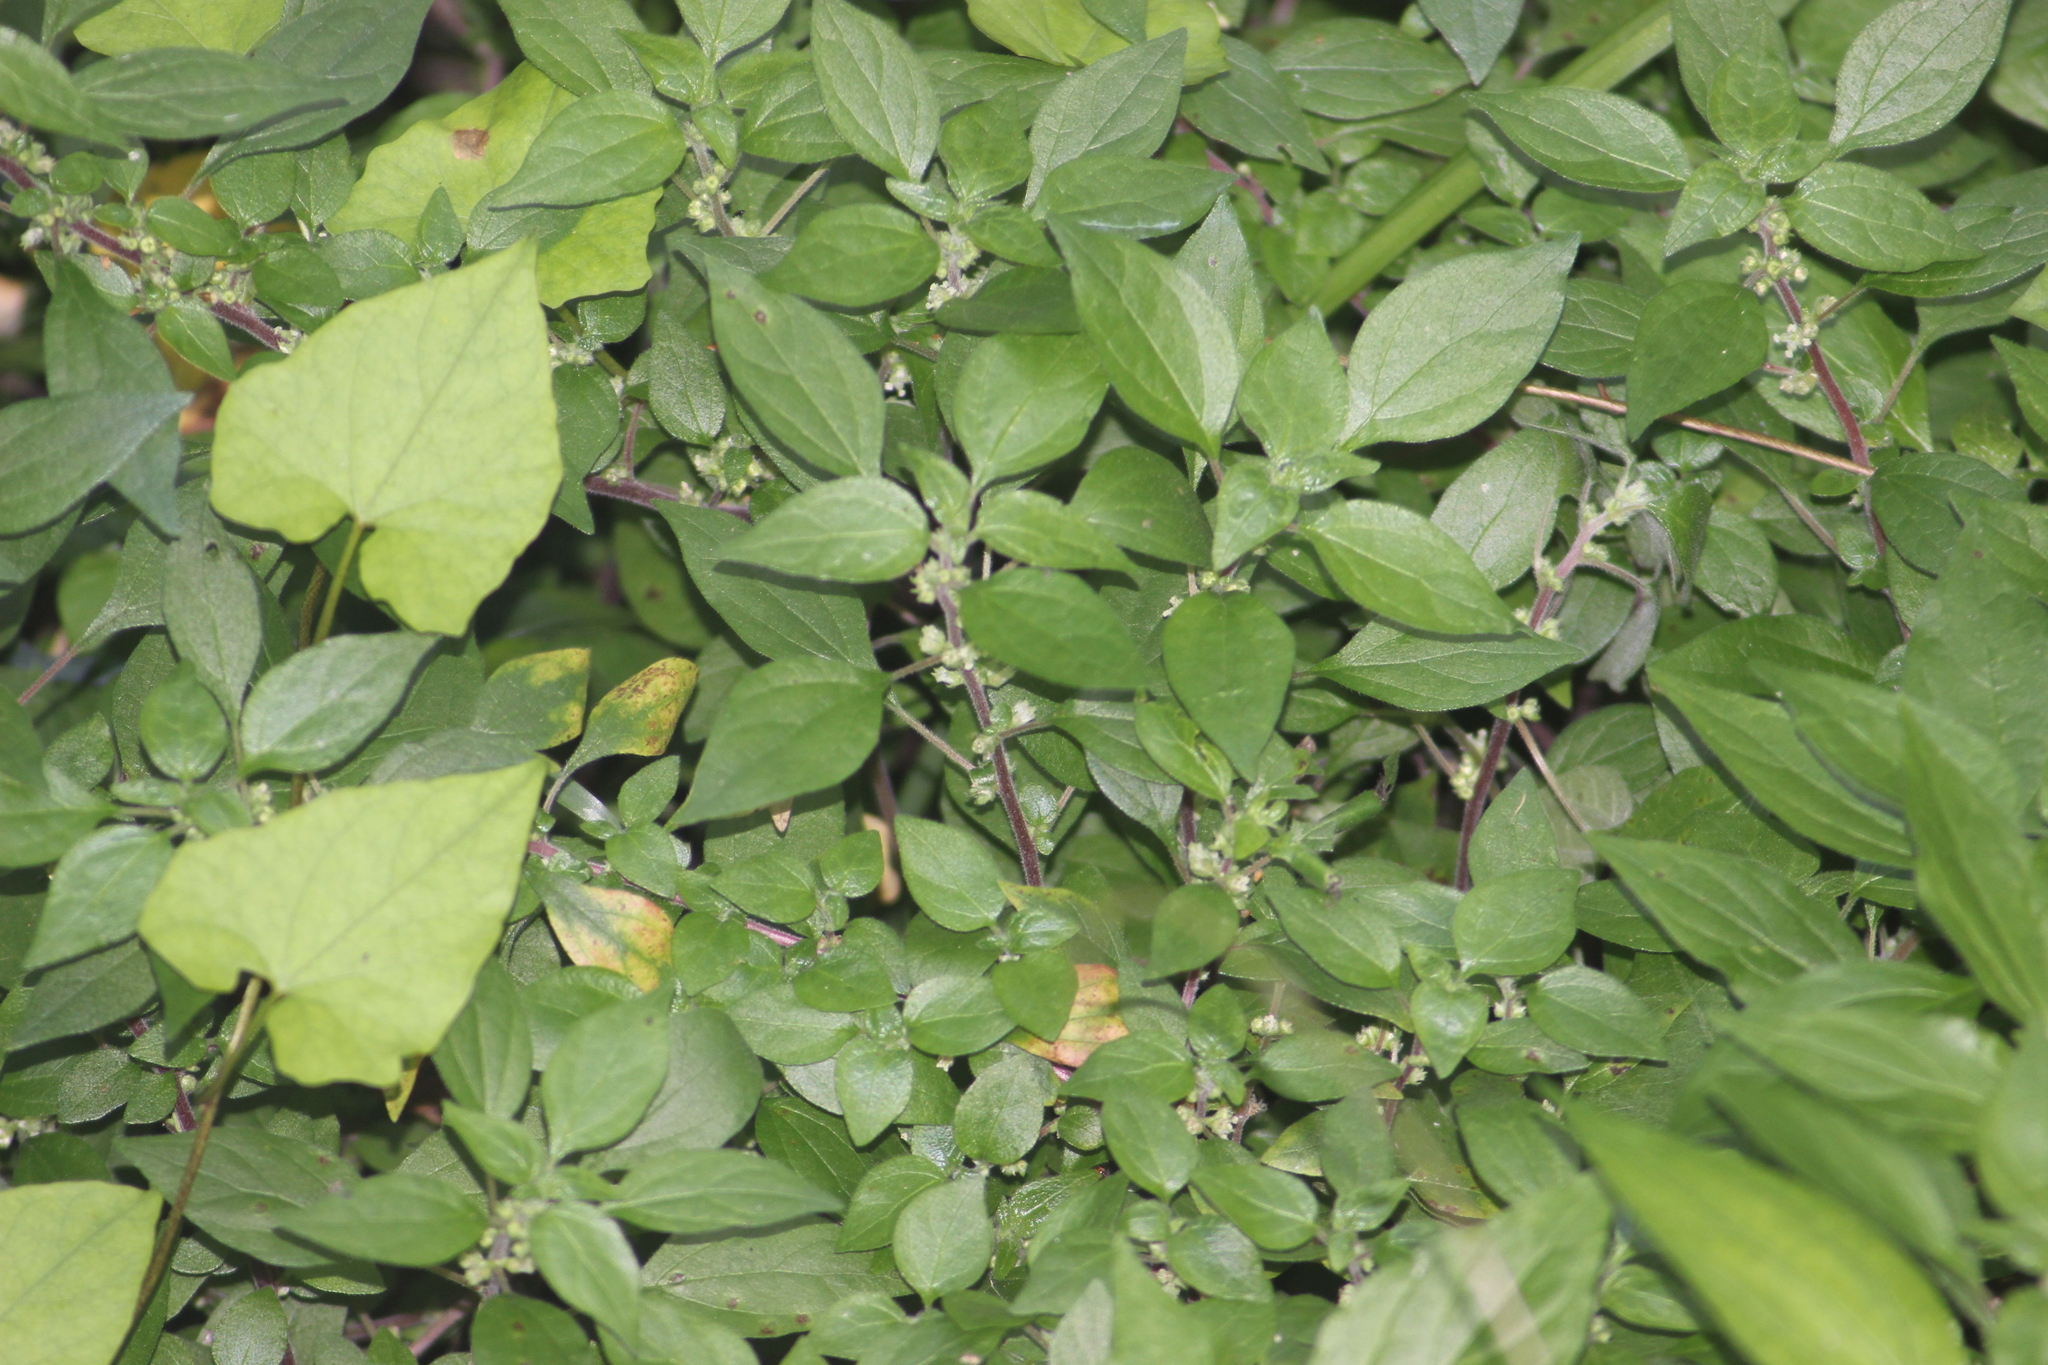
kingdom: Plantae
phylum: Tracheophyta
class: Magnoliopsida
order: Rosales
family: Urticaceae
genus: Parietaria
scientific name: Parietaria judaica
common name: Pellitory-of-the-wall
